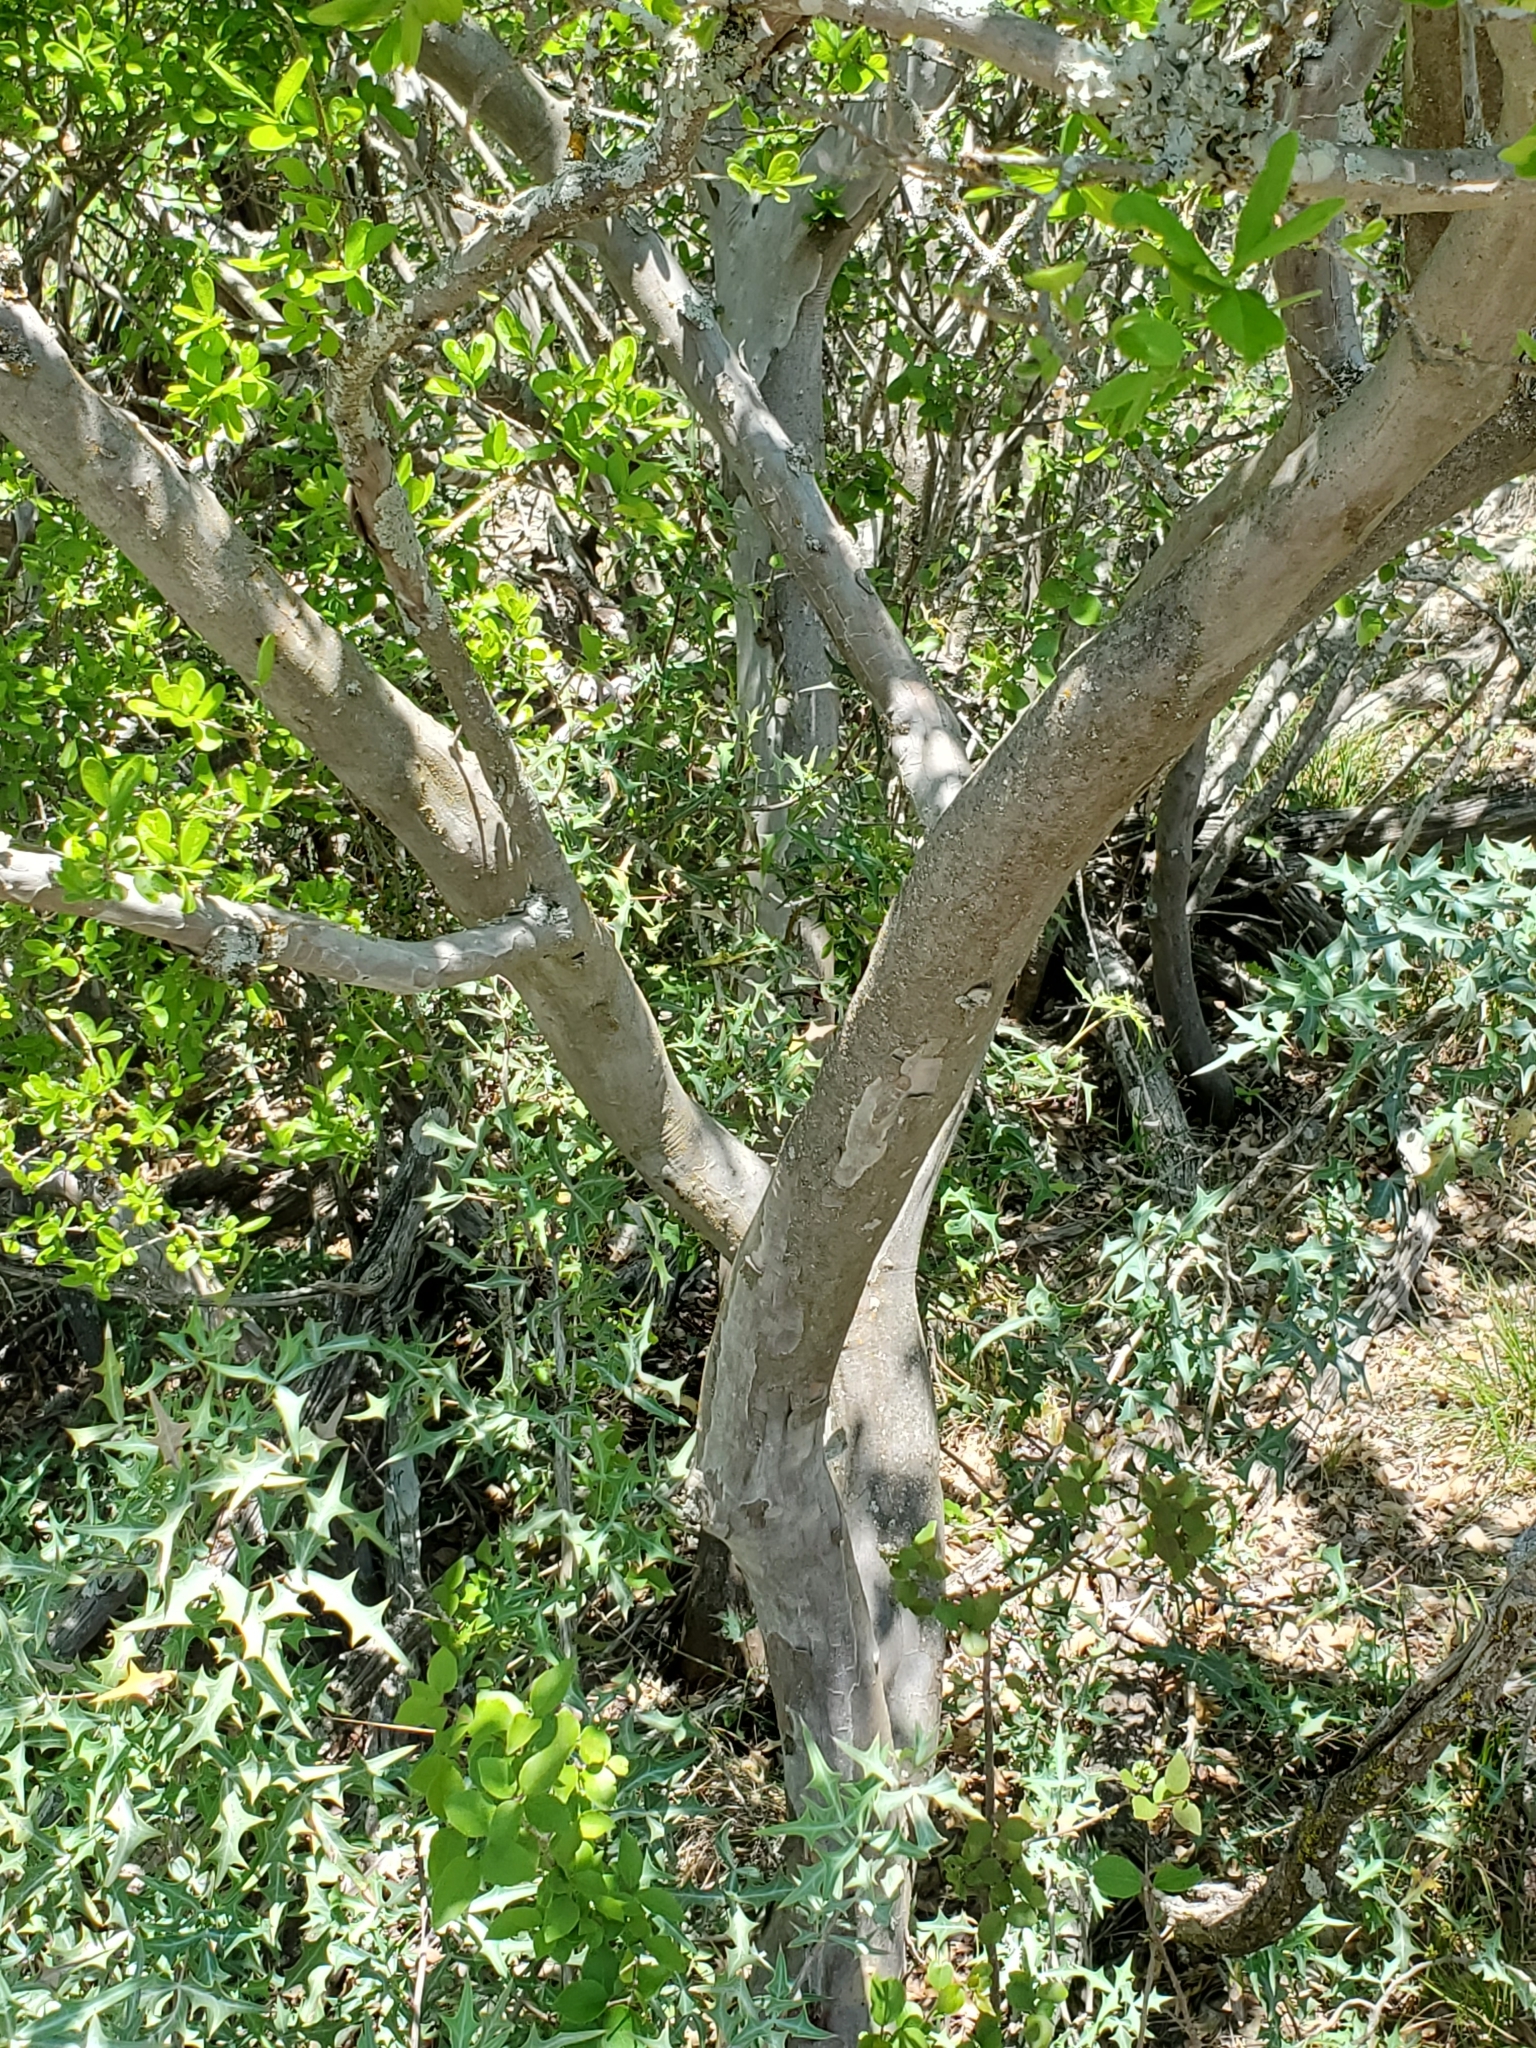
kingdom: Plantae
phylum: Tracheophyta
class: Magnoliopsida
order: Ericales
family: Ebenaceae
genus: Diospyros
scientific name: Diospyros texana
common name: Texas persimmon
